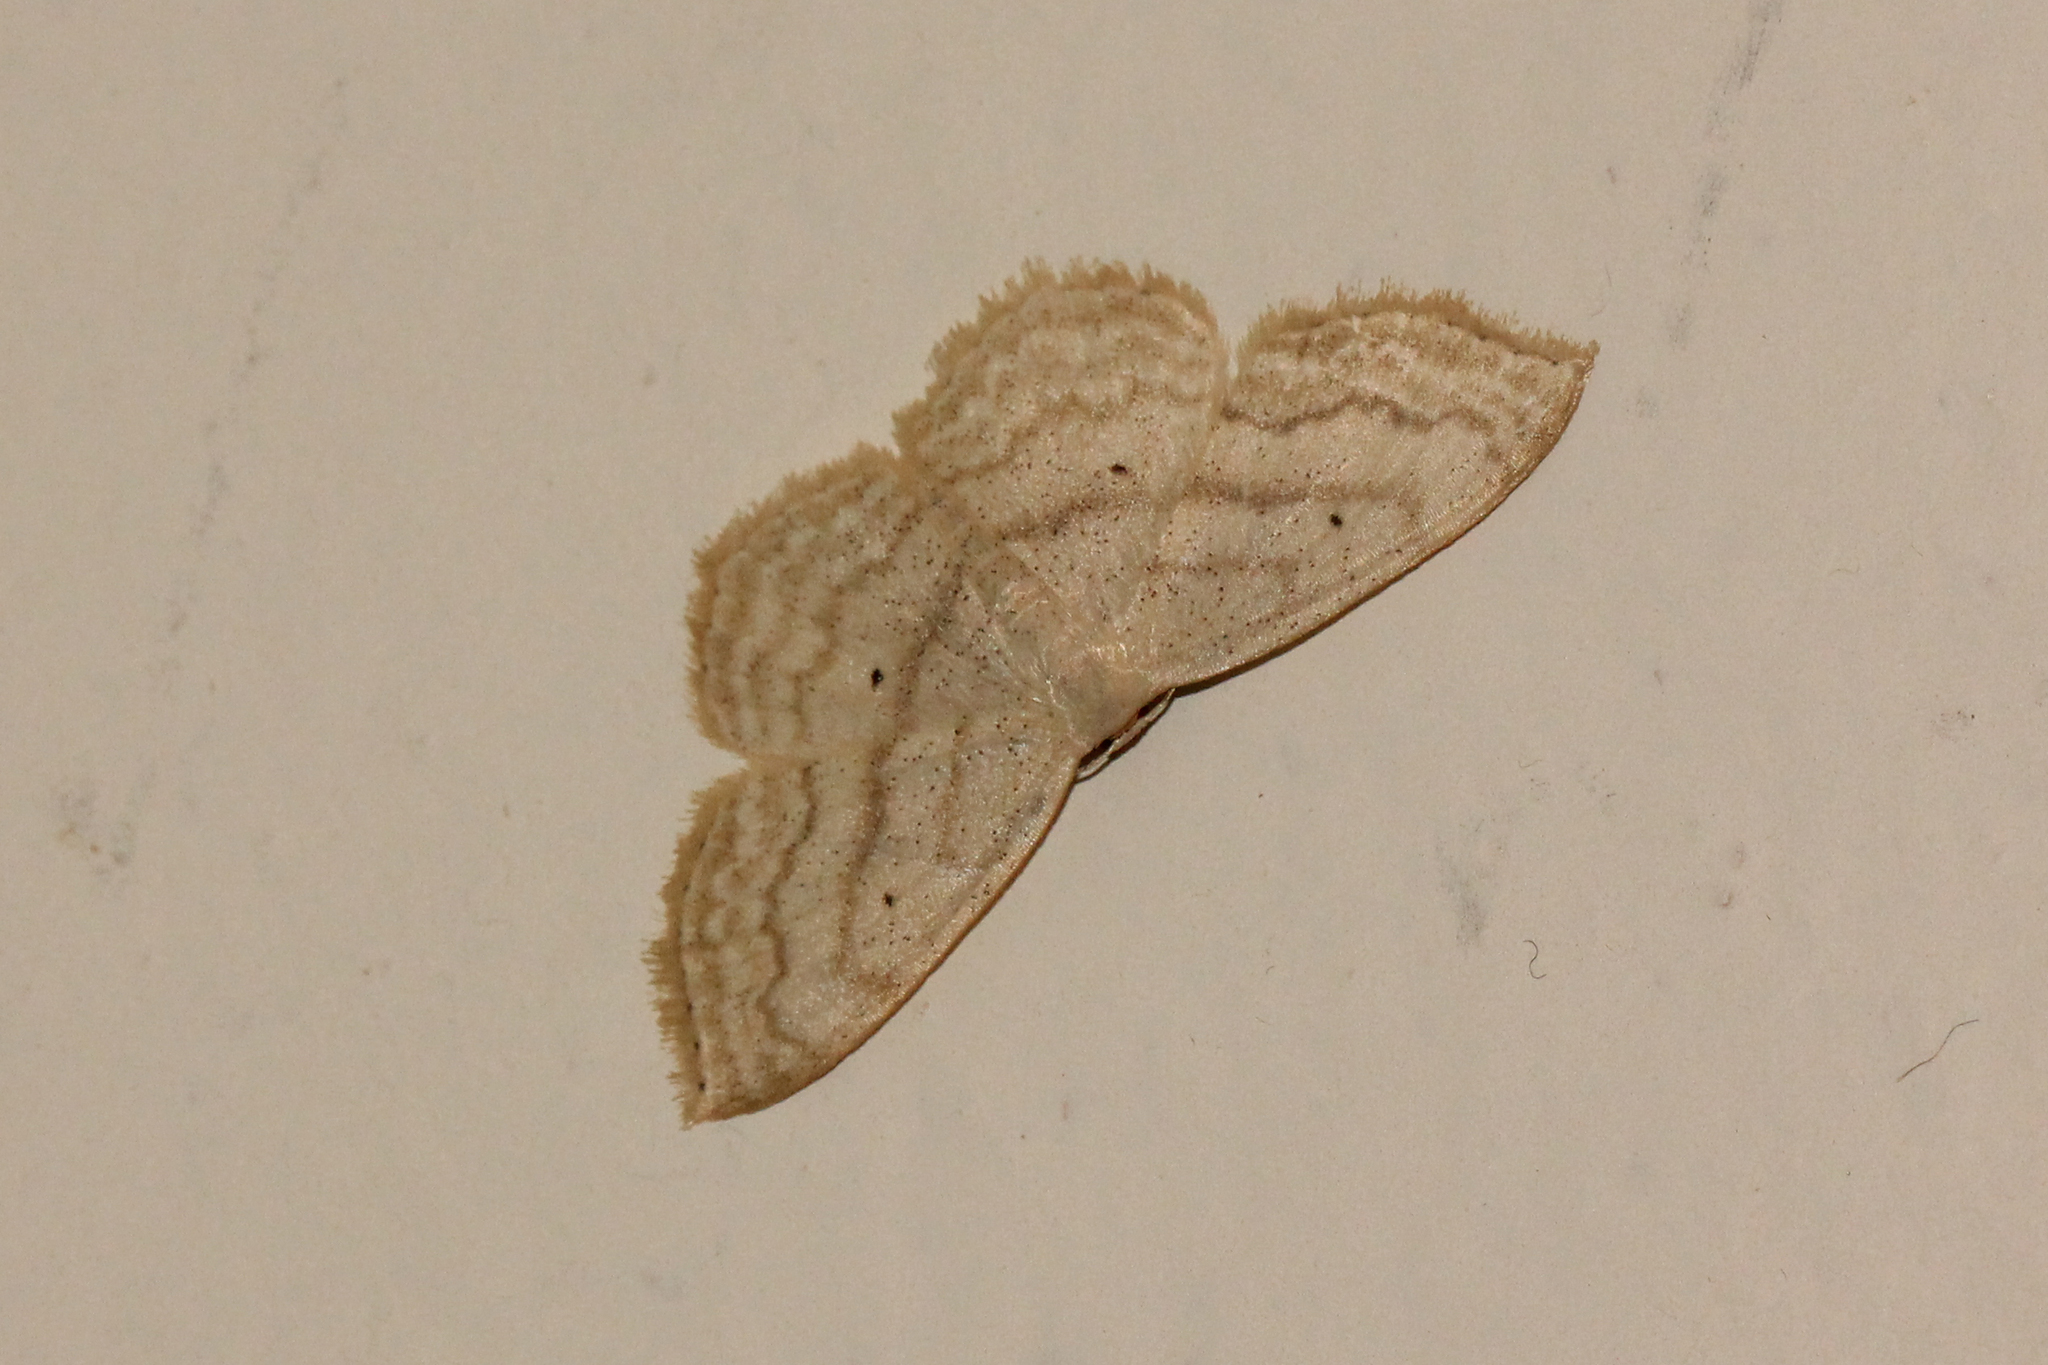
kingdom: Animalia
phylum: Arthropoda
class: Insecta
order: Lepidoptera
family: Geometridae
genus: Scopula
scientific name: Scopula limboundata
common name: Large lace border
